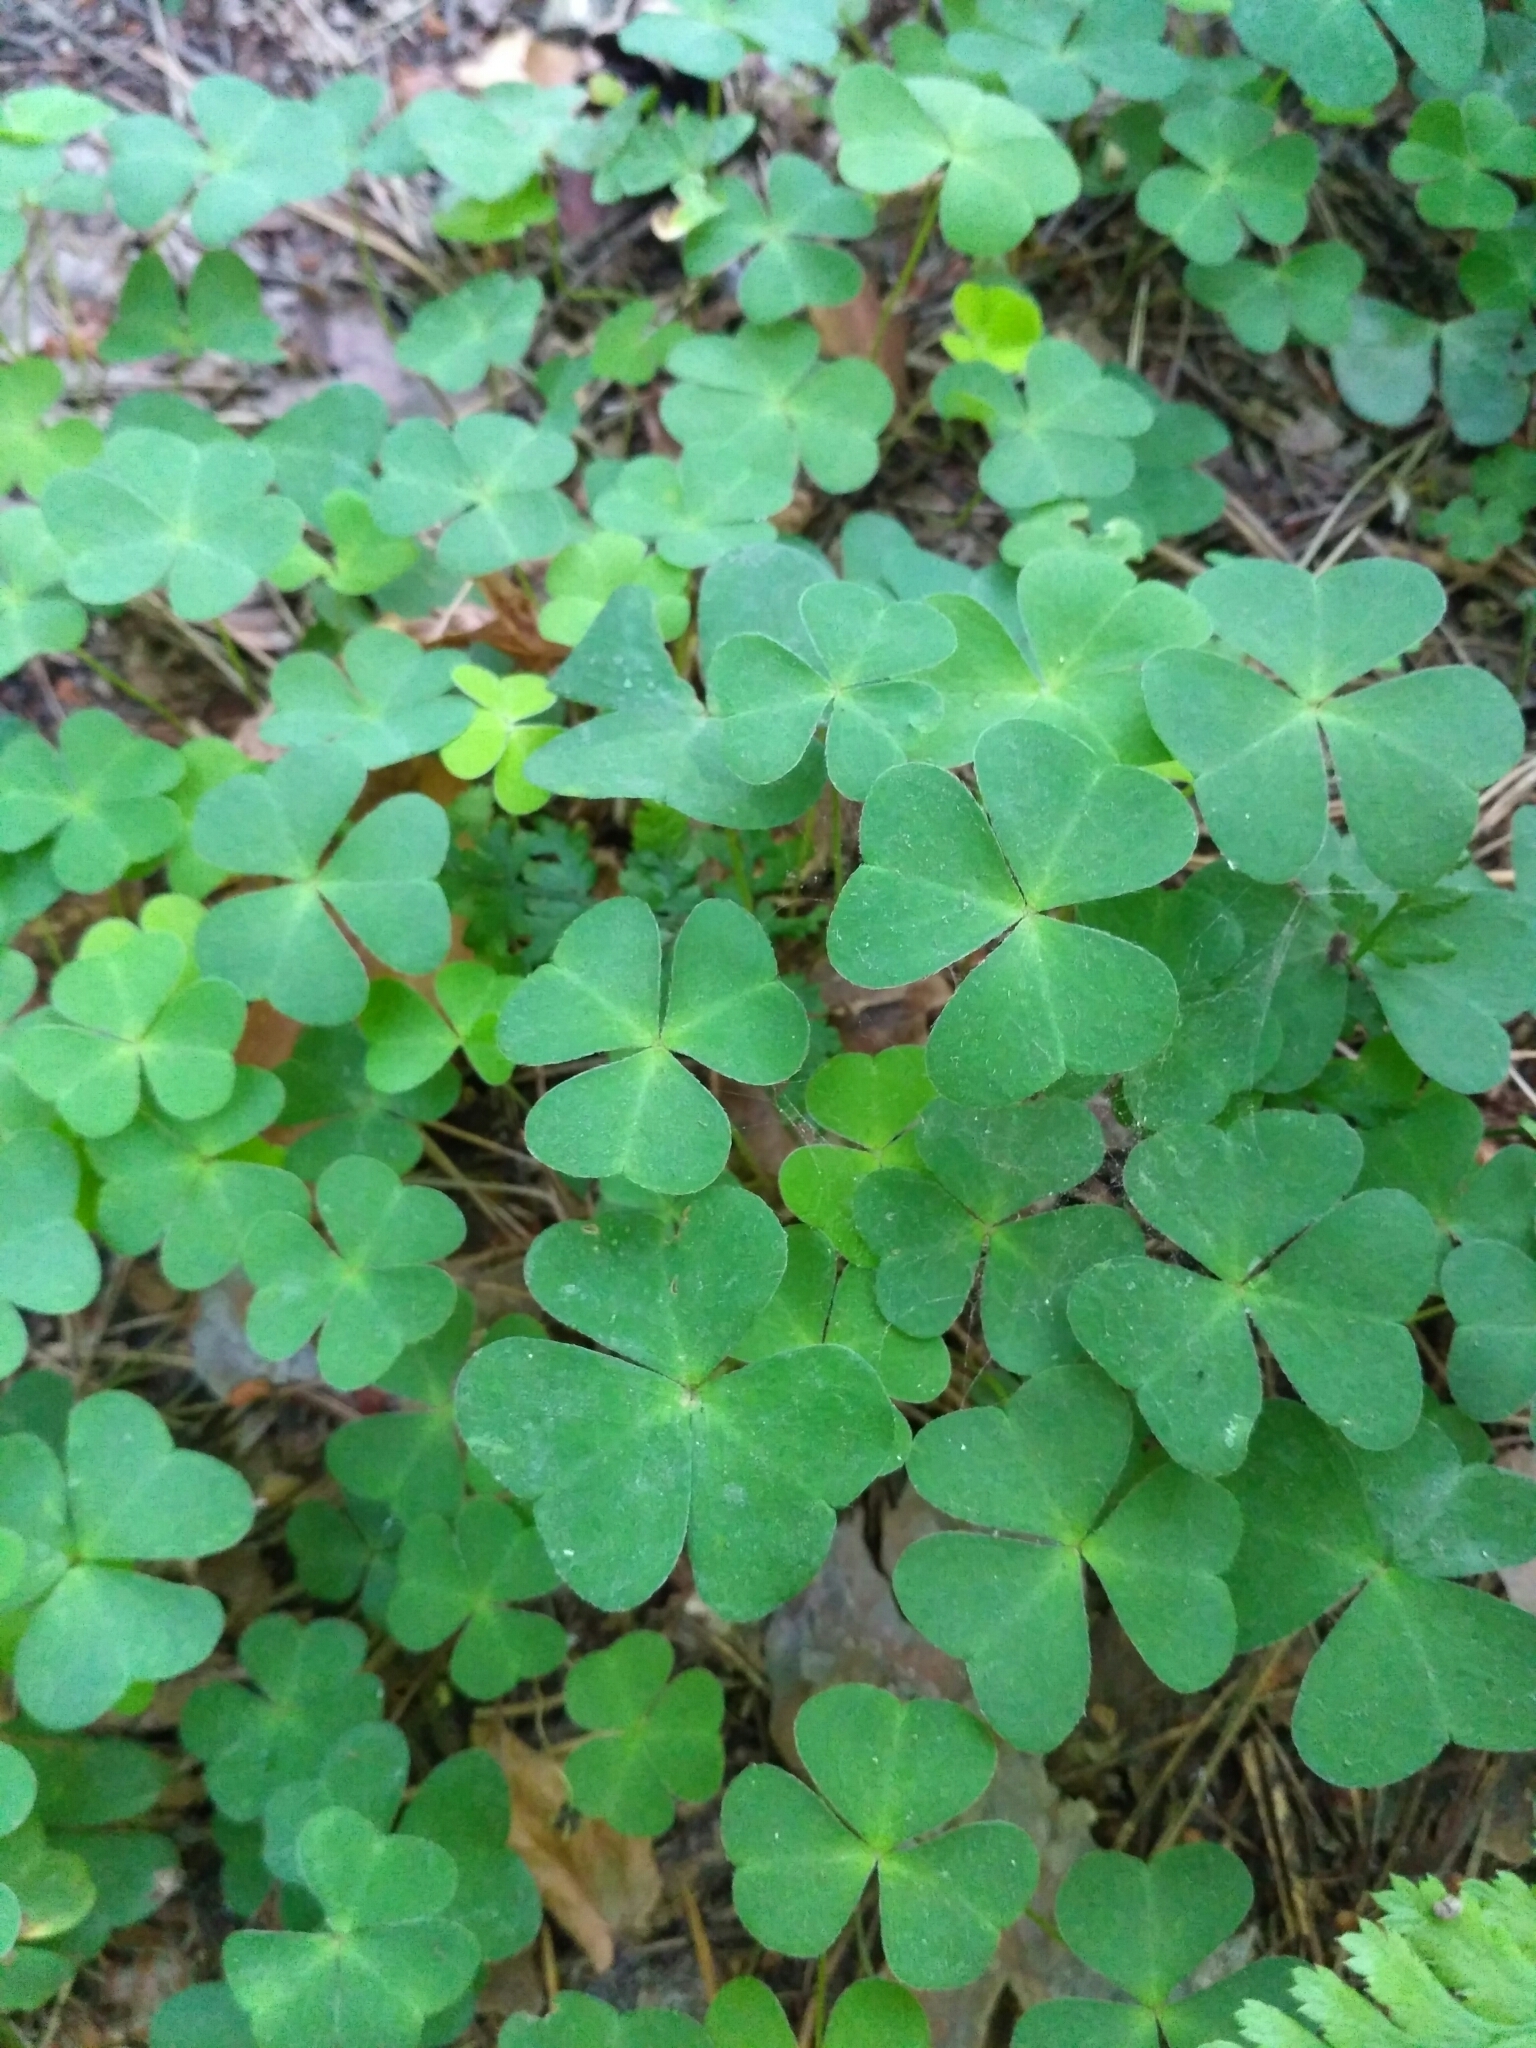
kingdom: Plantae
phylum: Tracheophyta
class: Magnoliopsida
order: Oxalidales
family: Oxalidaceae
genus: Oxalis
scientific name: Oxalis acetosella
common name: Wood-sorrel
